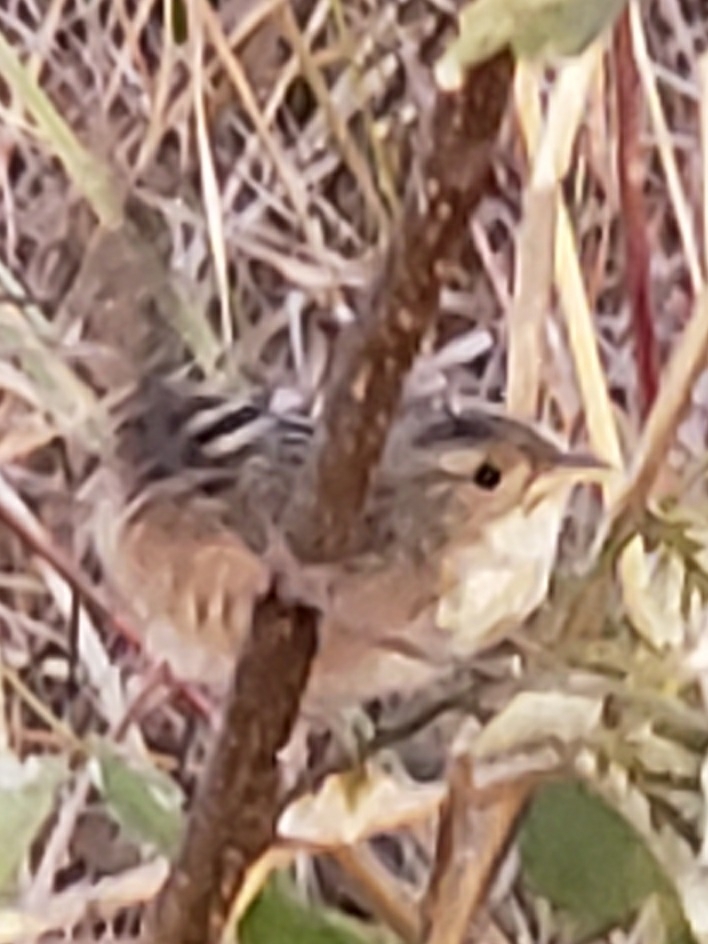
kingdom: Animalia
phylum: Chordata
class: Aves
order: Passeriformes
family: Troglodytidae
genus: Cistothorus
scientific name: Cistothorus platensis
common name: Sedge wren
